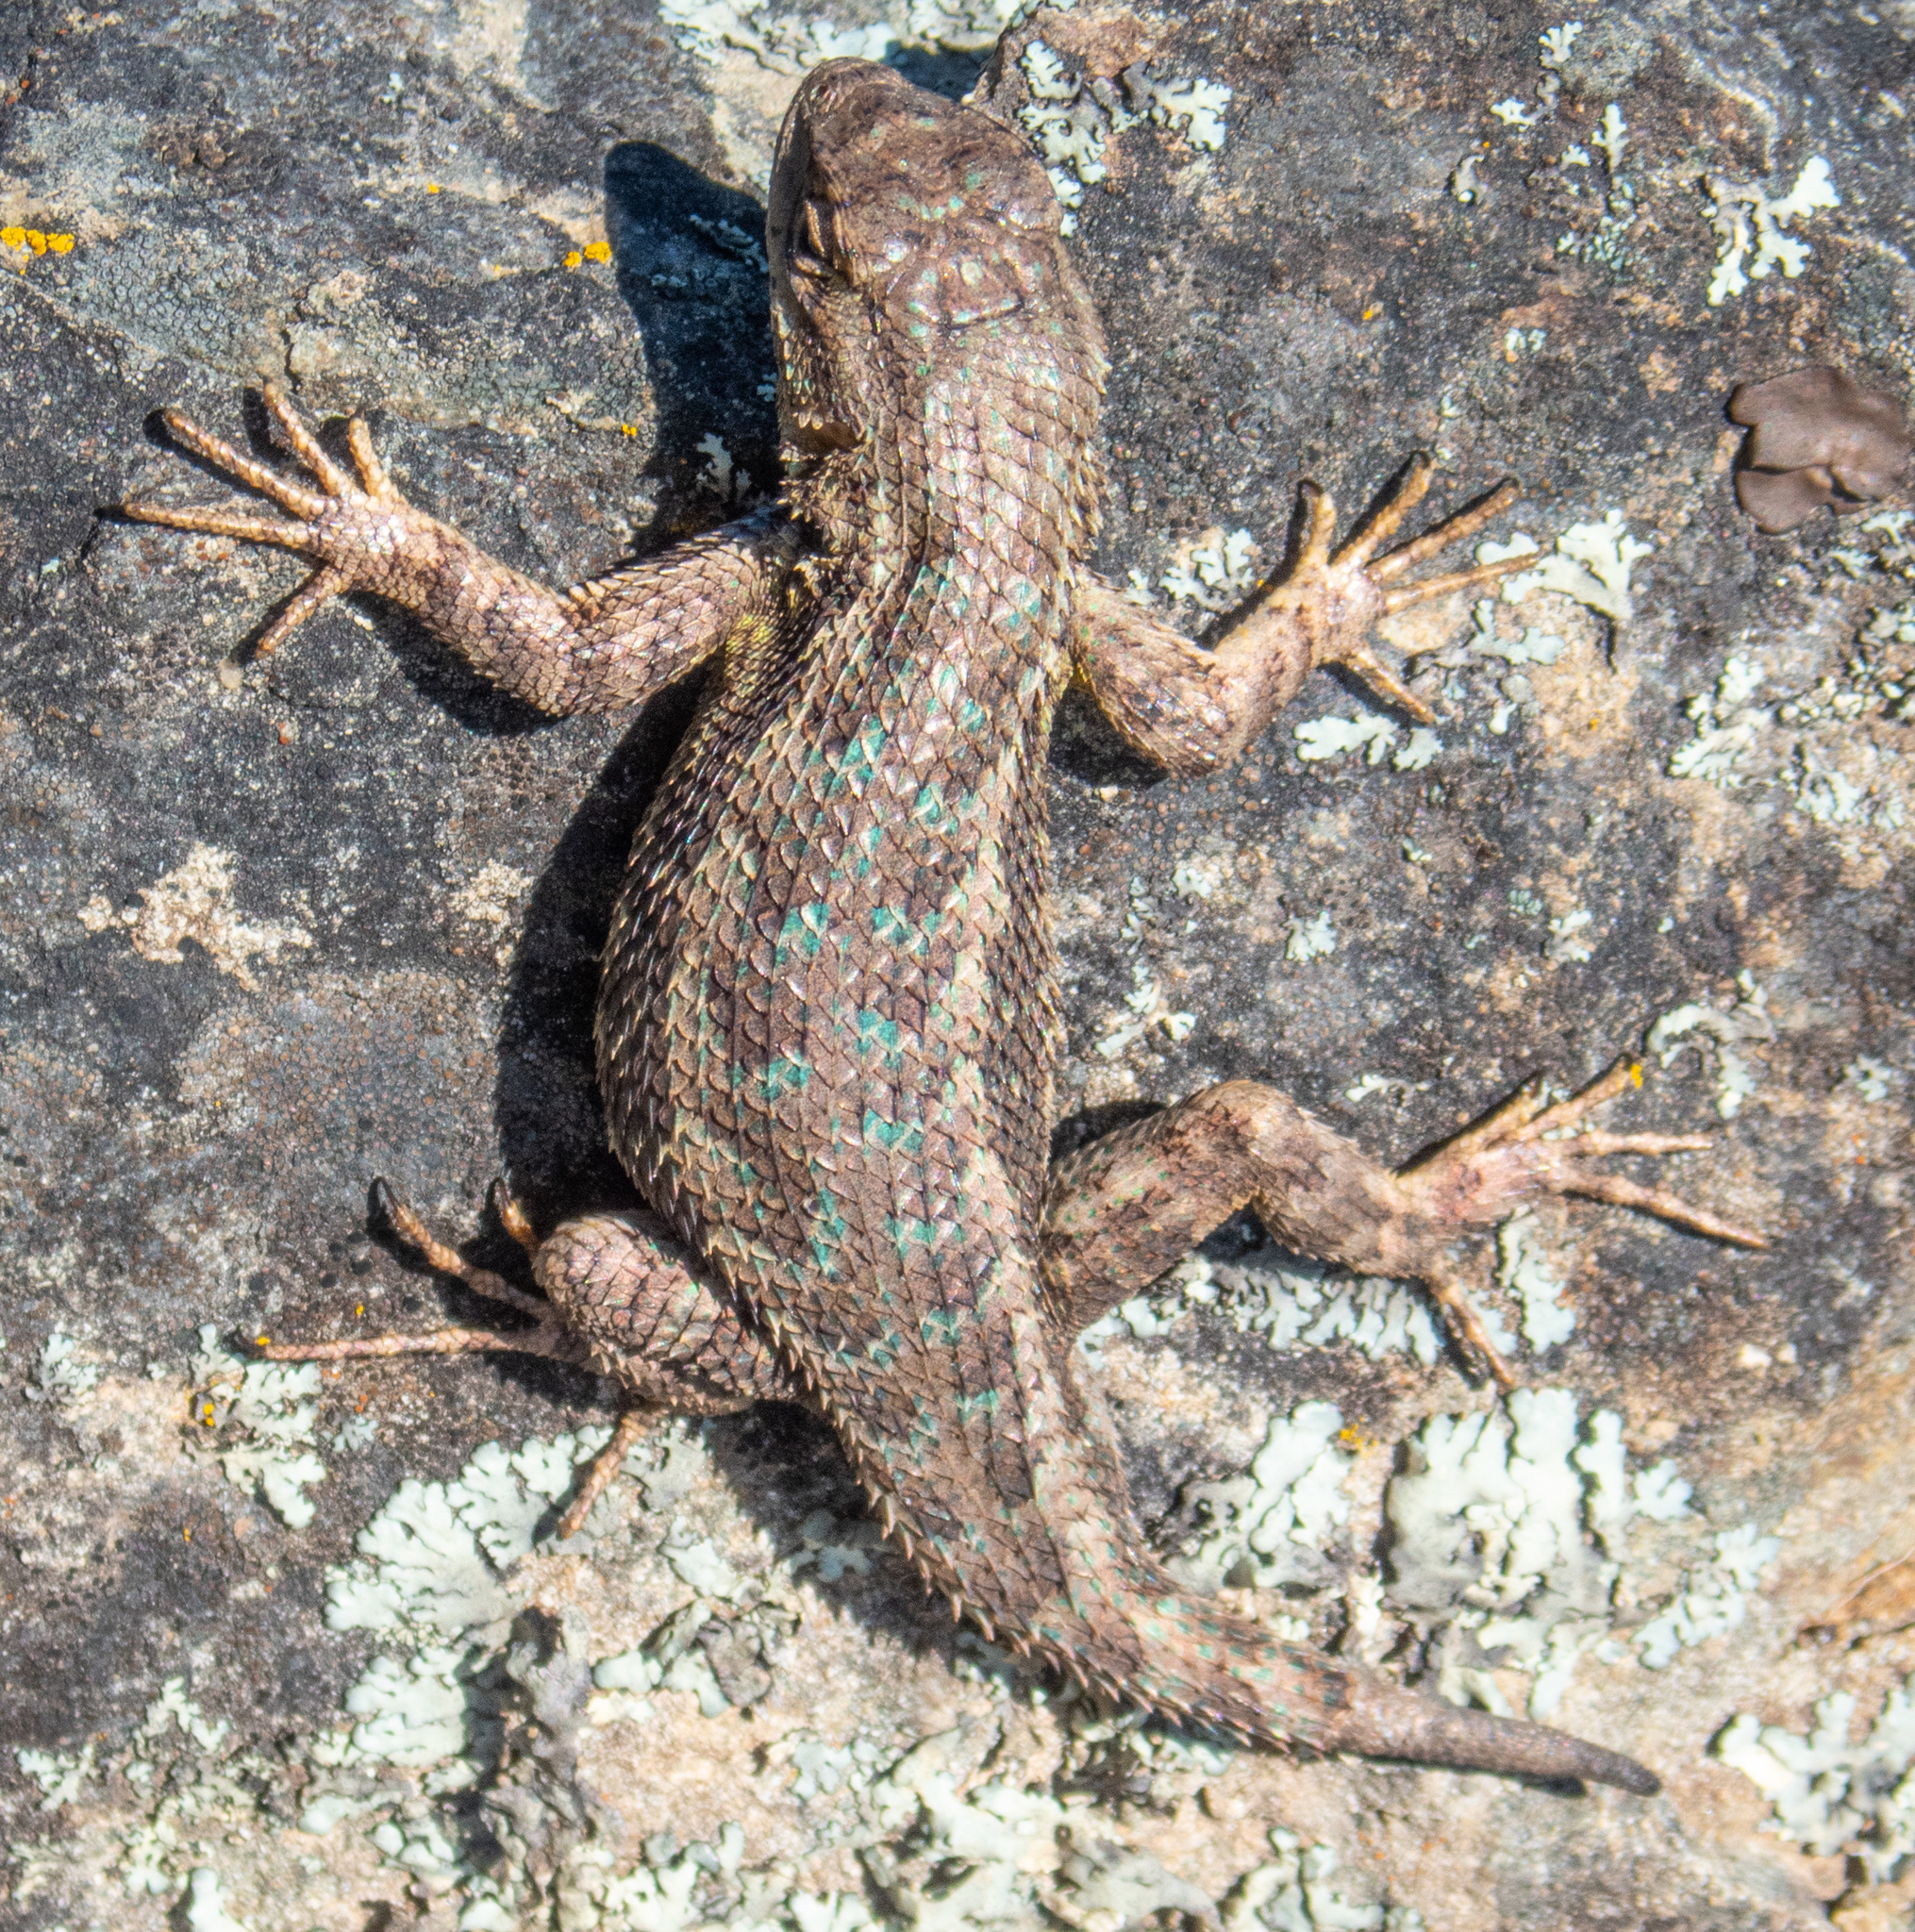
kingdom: Animalia
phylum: Chordata
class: Squamata
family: Phrynosomatidae
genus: Sceloporus
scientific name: Sceloporus occidentalis
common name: Western fence lizard
